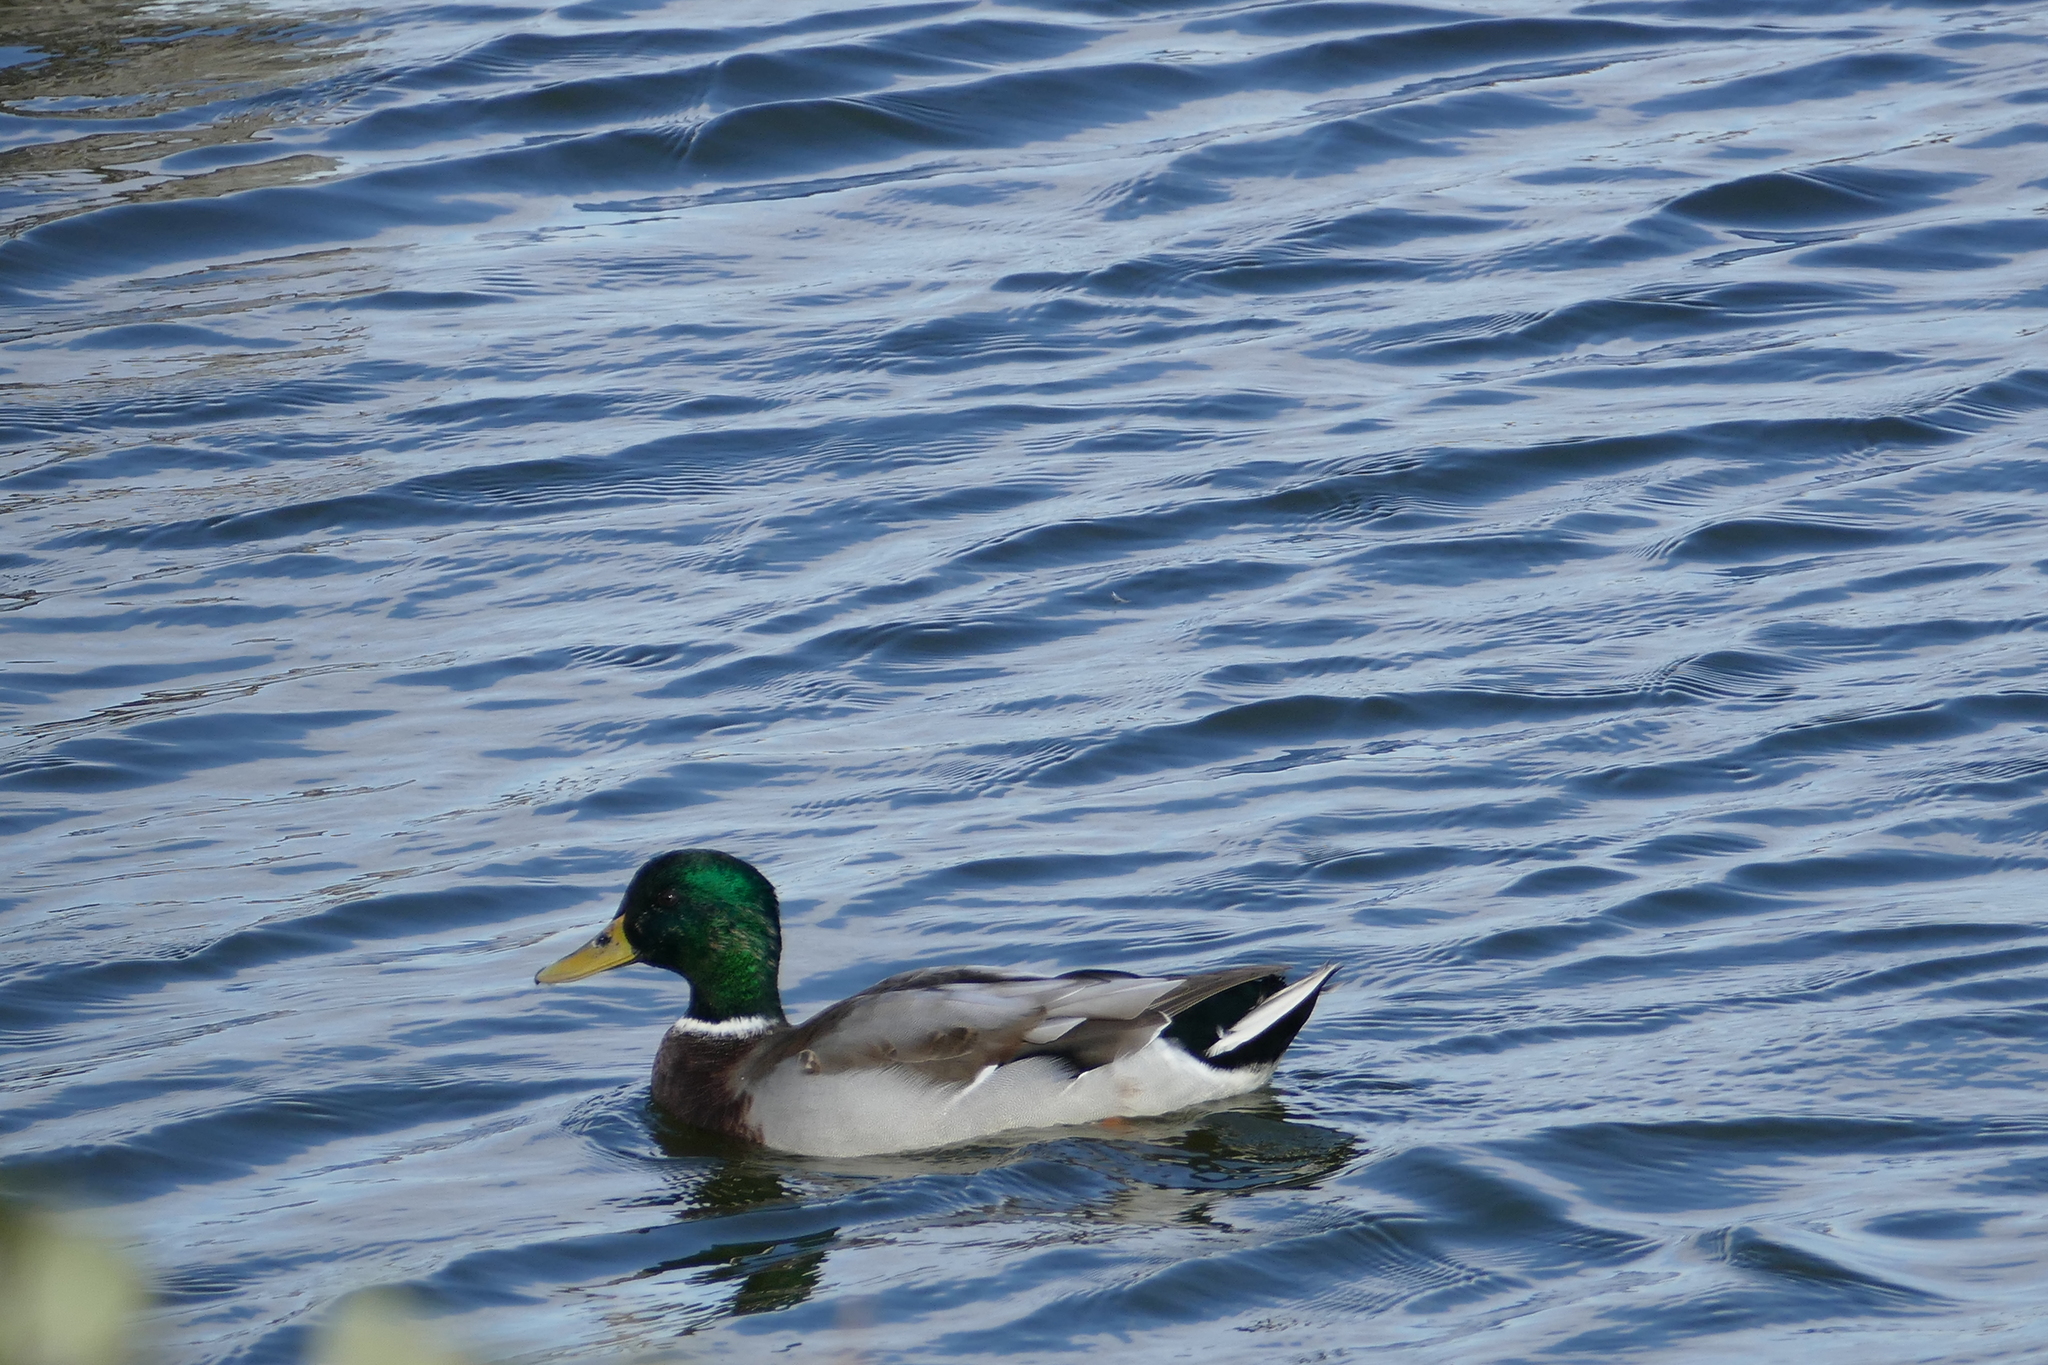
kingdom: Animalia
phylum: Chordata
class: Aves
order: Anseriformes
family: Anatidae
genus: Anas
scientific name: Anas platyrhynchos
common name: Mallard
